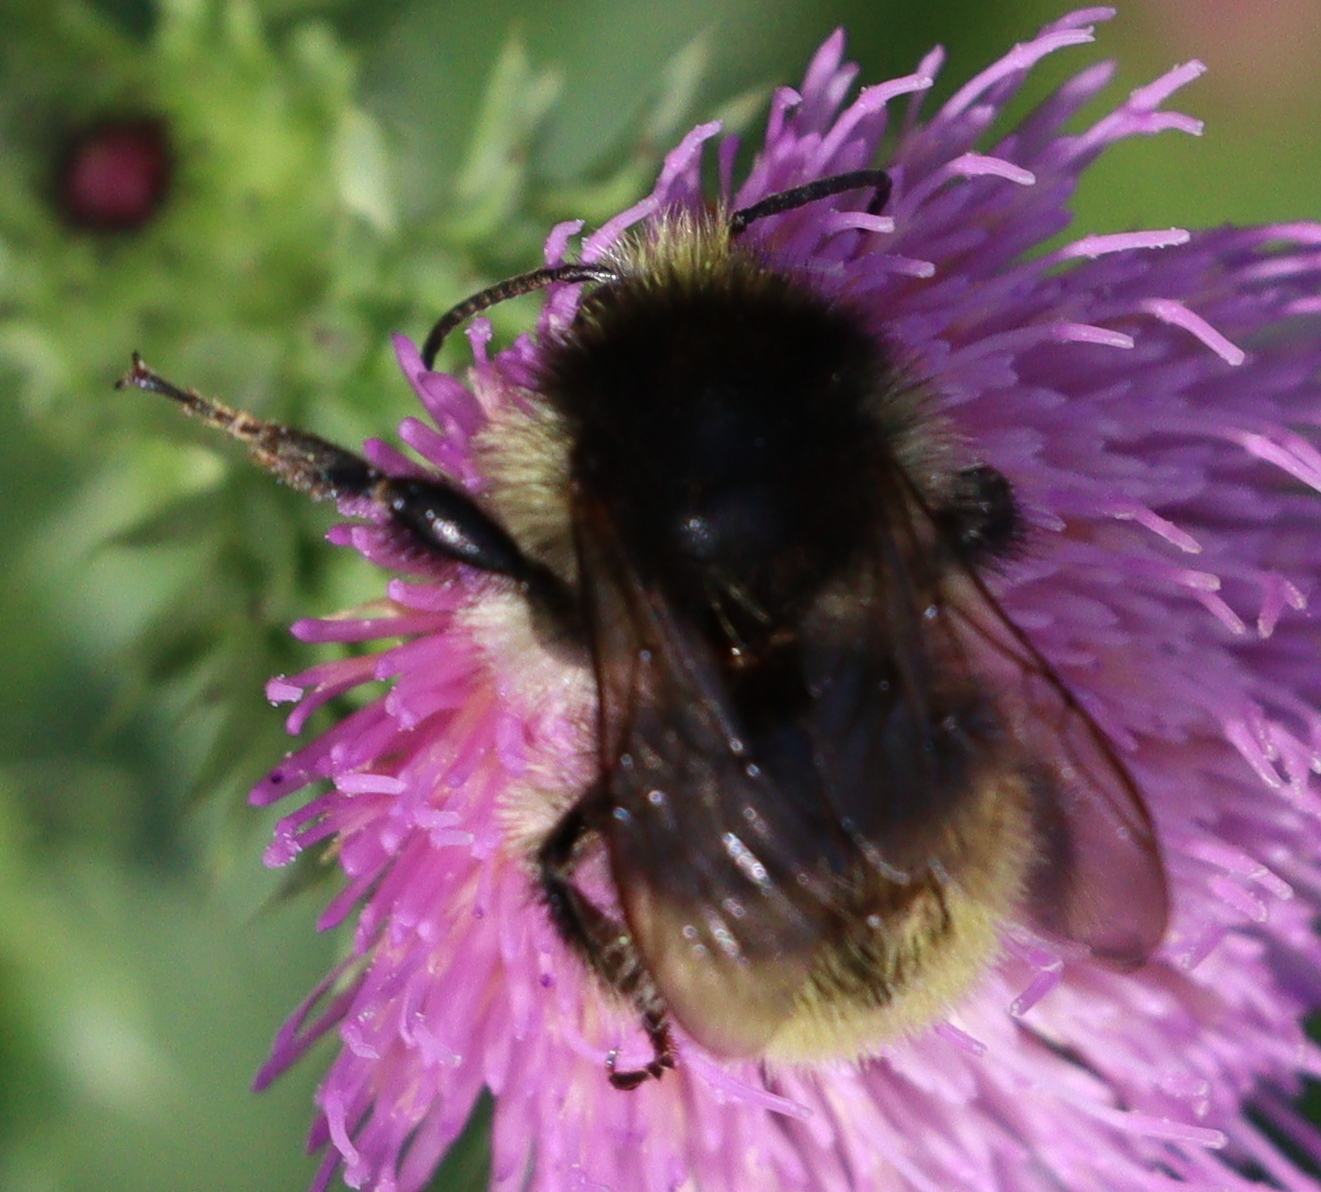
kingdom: Animalia
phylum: Arthropoda
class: Insecta
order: Hymenoptera
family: Apidae
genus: Bombus
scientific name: Bombus humilis
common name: Brown-banded carder-bee
